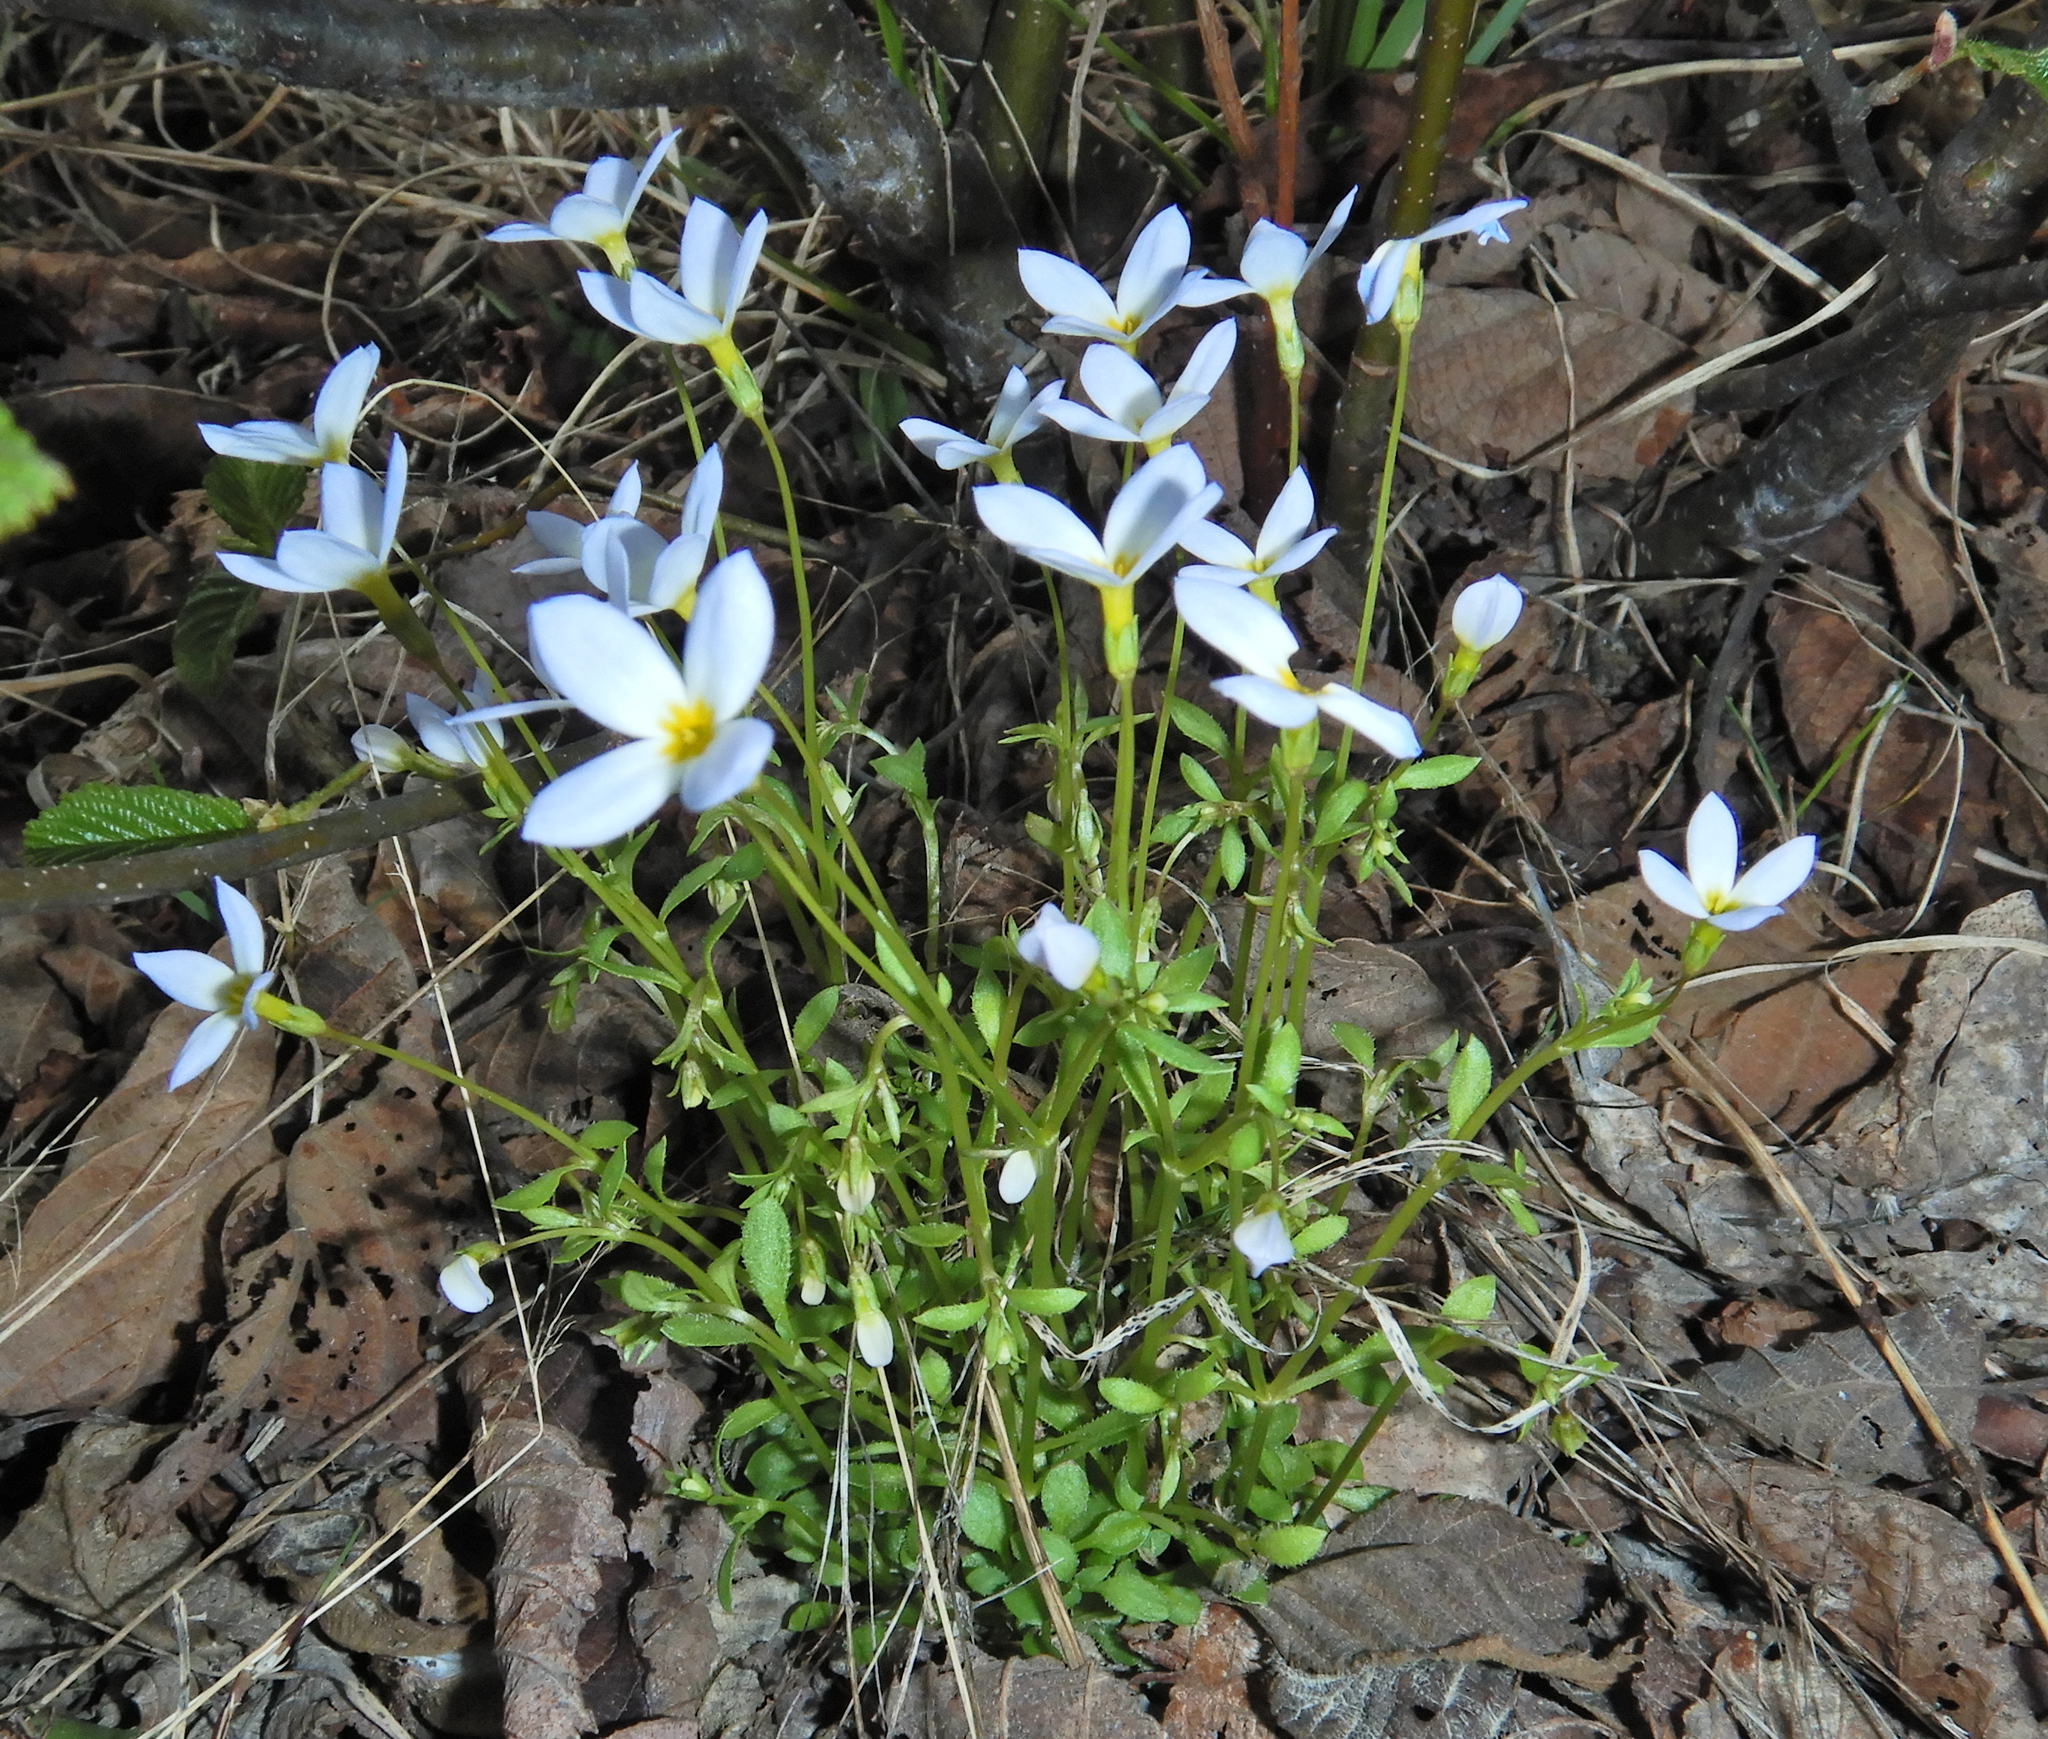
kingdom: Plantae
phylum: Tracheophyta
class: Magnoliopsida
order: Gentianales
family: Rubiaceae
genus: Houstonia
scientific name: Houstonia caerulea
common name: Bluets
